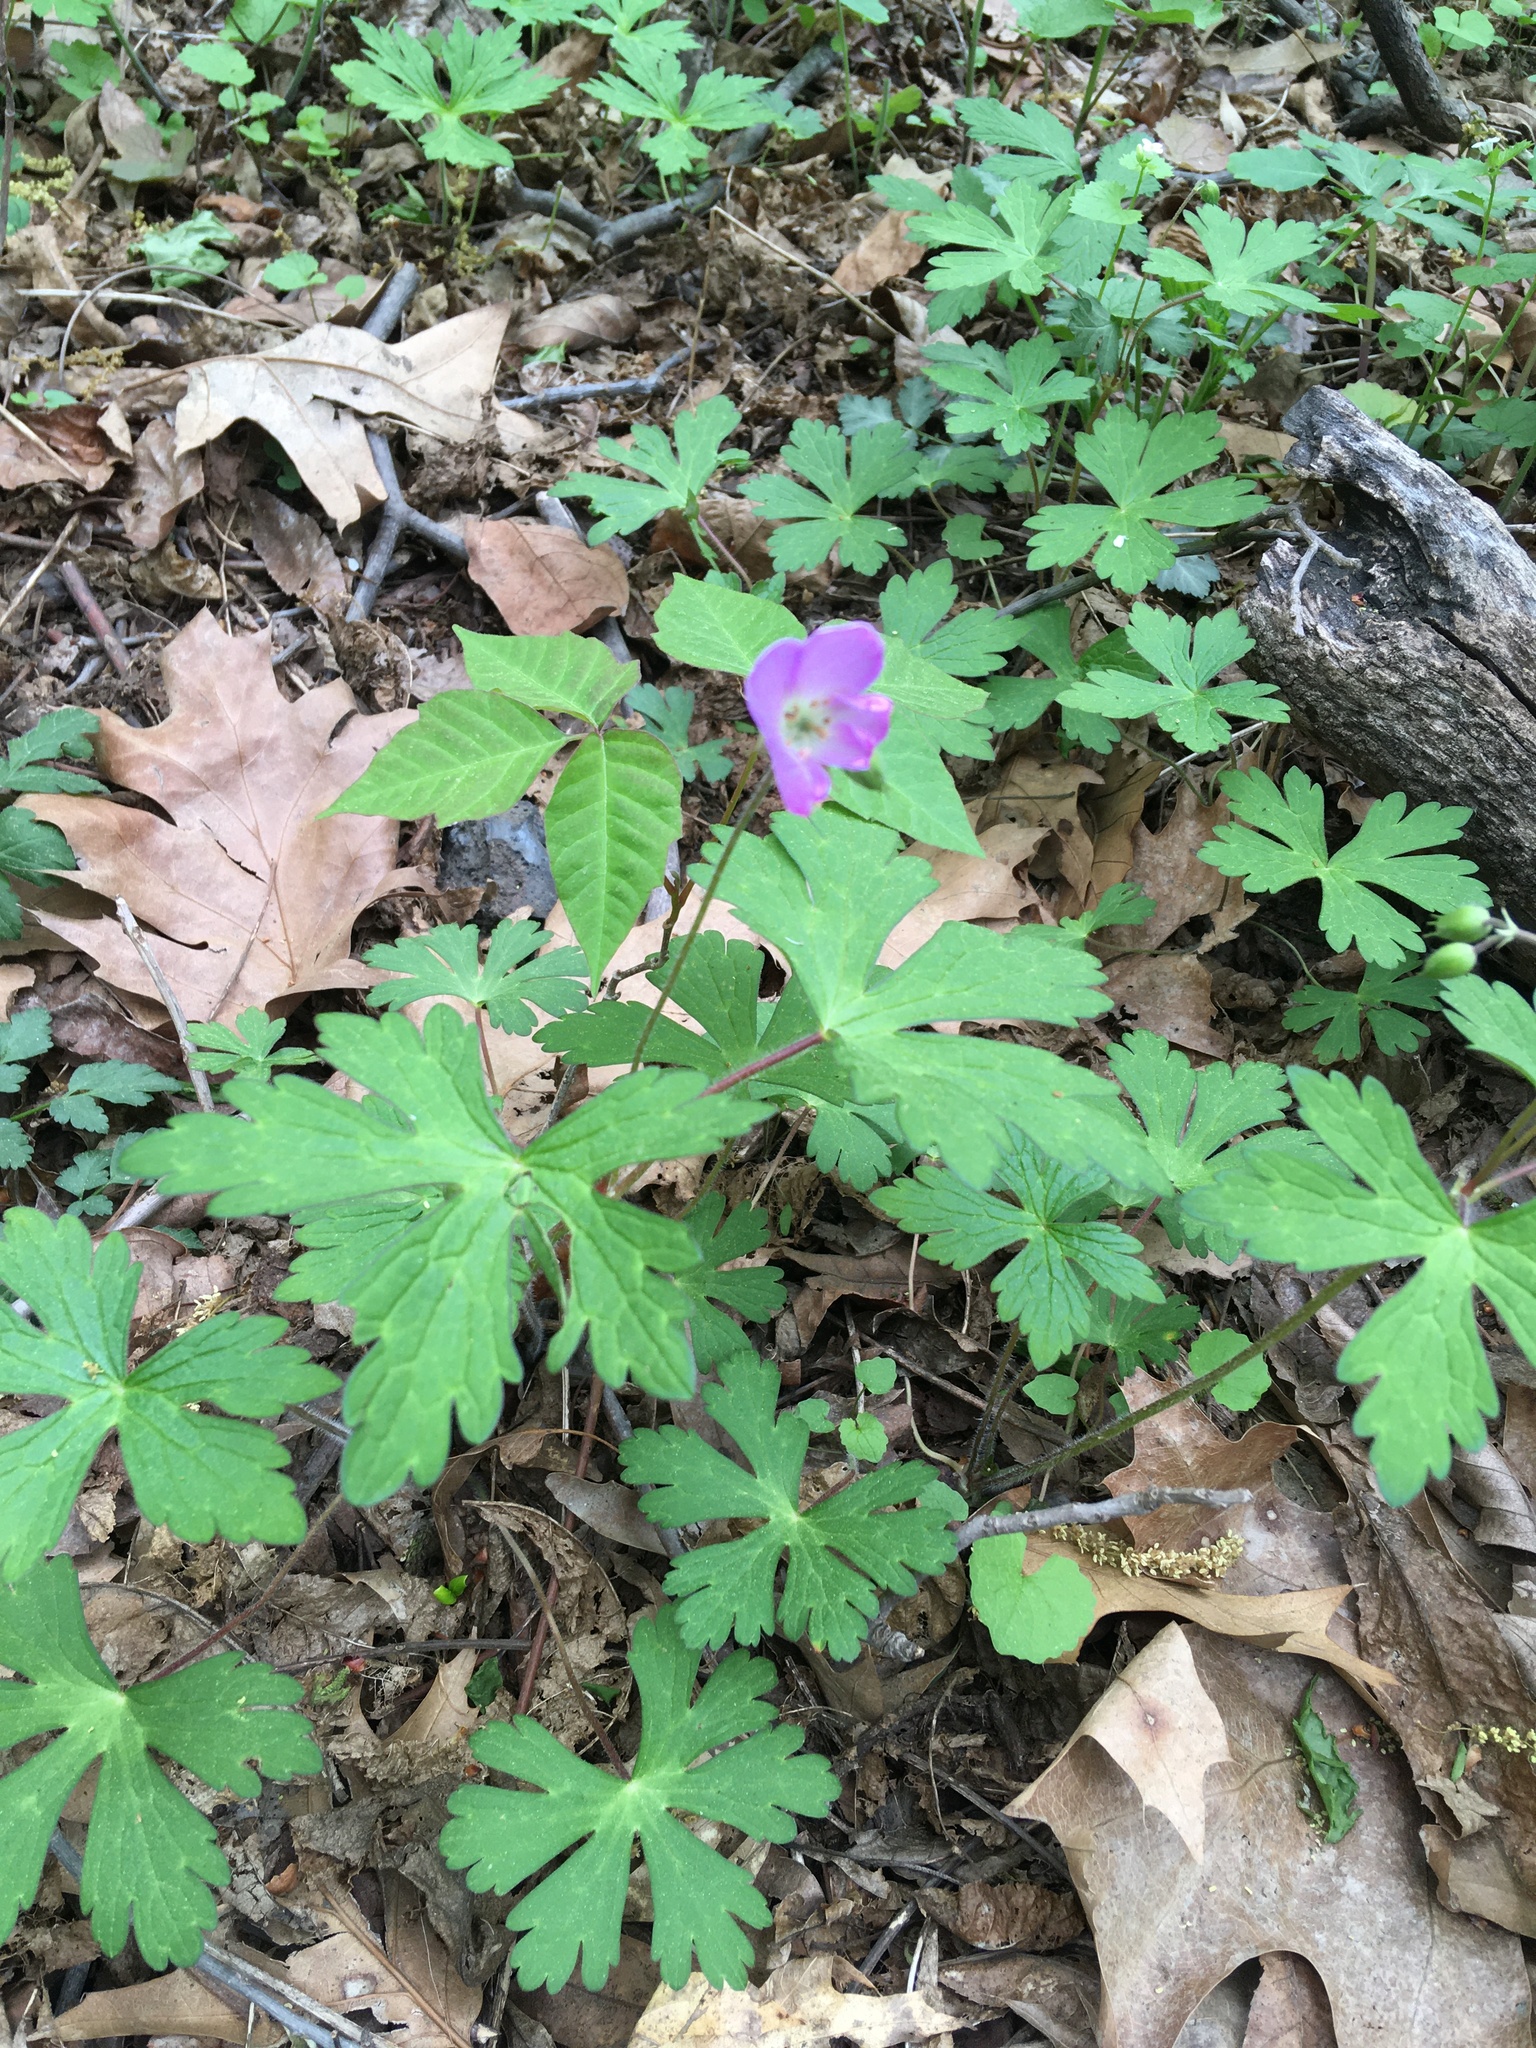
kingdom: Plantae
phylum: Tracheophyta
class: Magnoliopsida
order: Geraniales
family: Geraniaceae
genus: Geranium
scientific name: Geranium maculatum
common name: Spotted geranium
